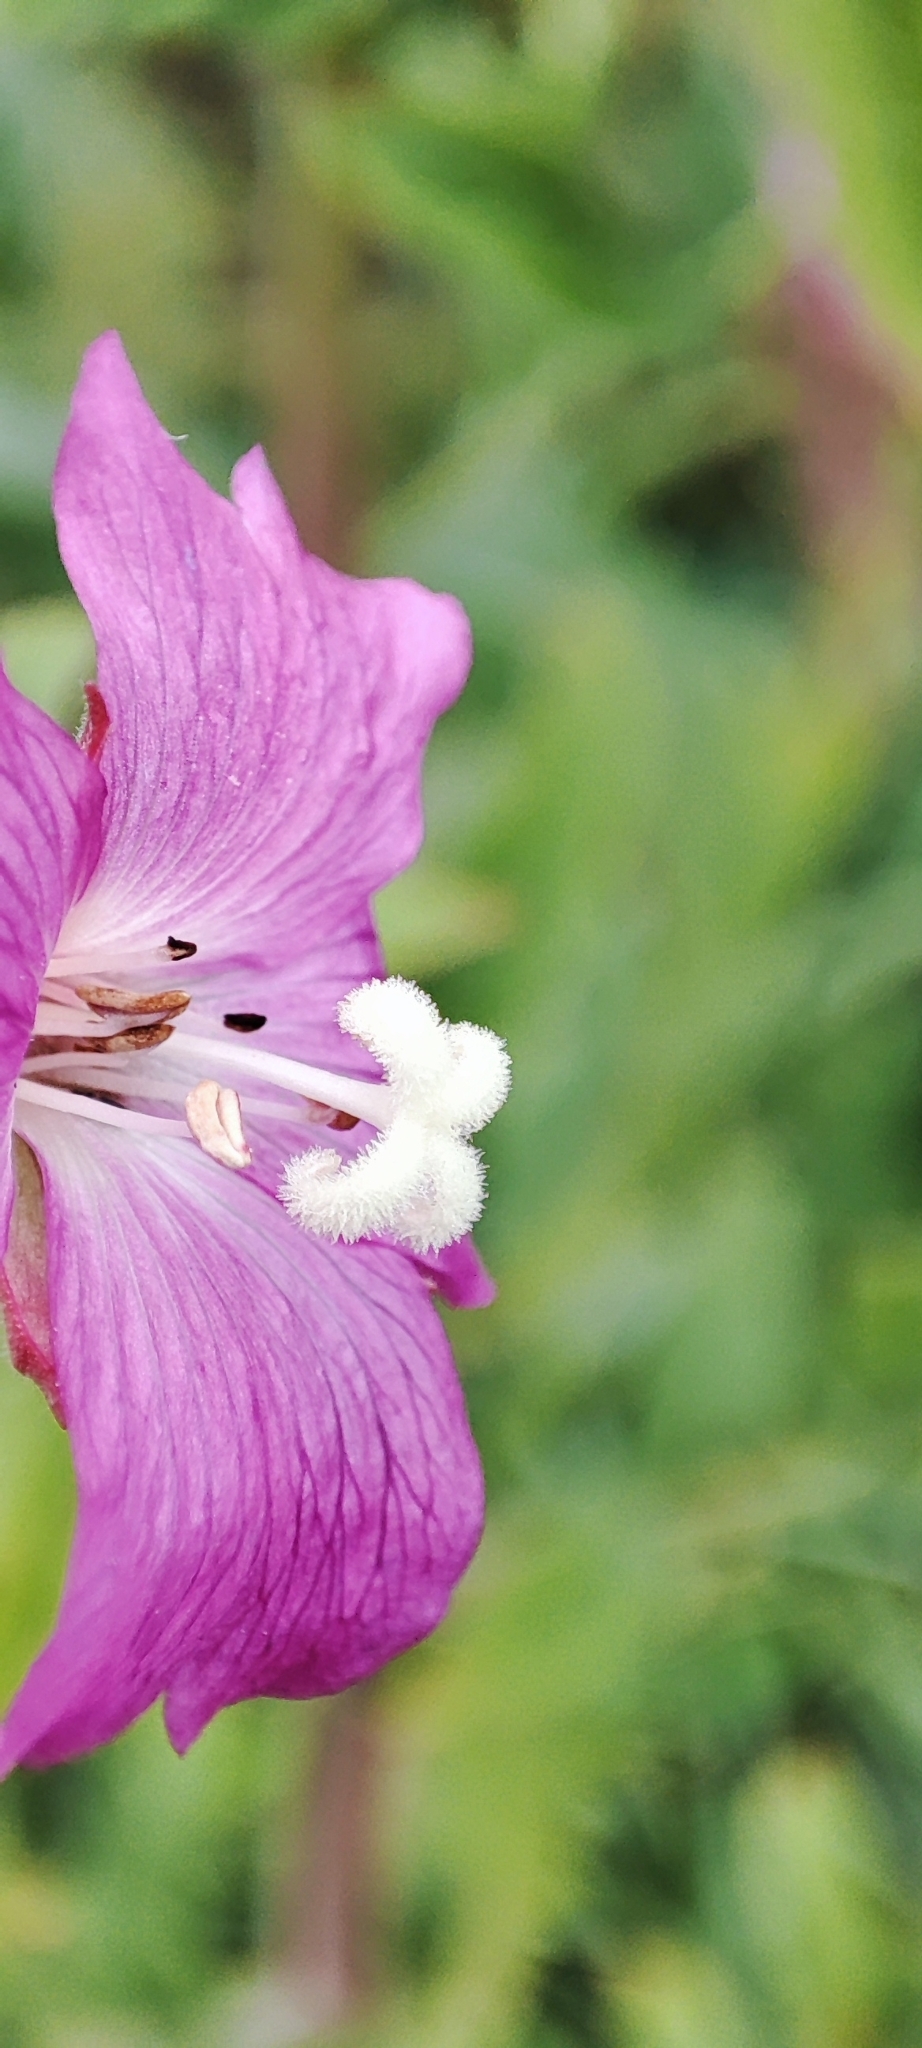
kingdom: Plantae
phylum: Tracheophyta
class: Magnoliopsida
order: Myrtales
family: Onagraceae
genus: Epilobium
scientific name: Epilobium hirsutum
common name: Great willowherb
